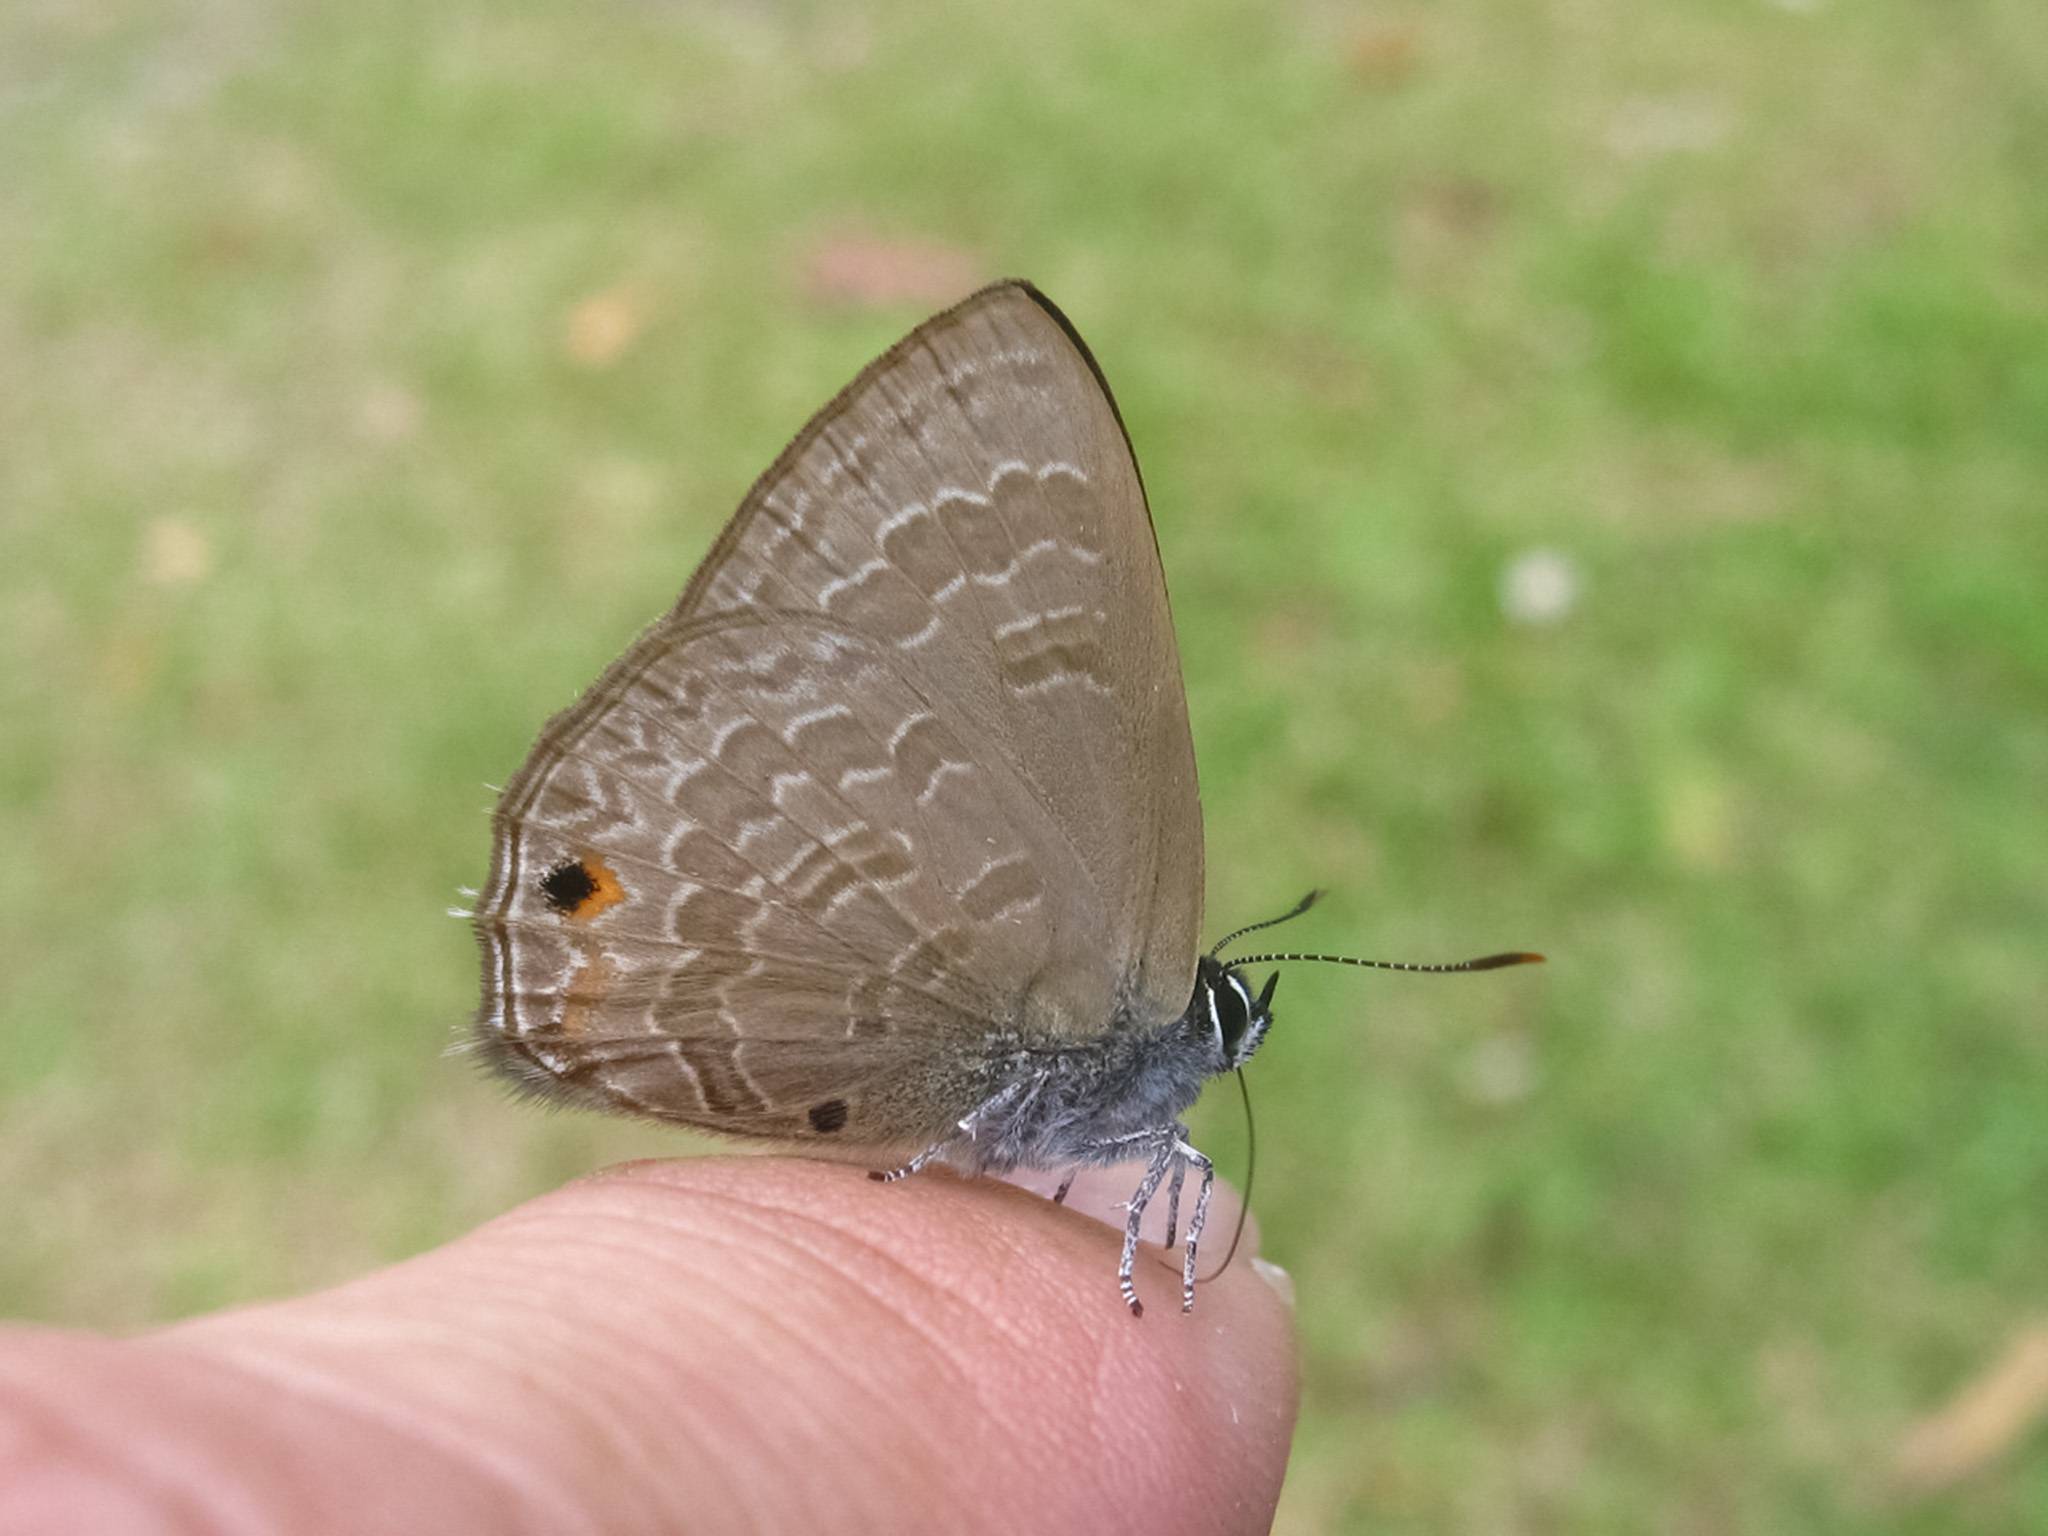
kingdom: Animalia
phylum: Arthropoda
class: Insecta
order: Lepidoptera
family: Lycaenidae
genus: Anthene
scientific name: Anthene emolus
